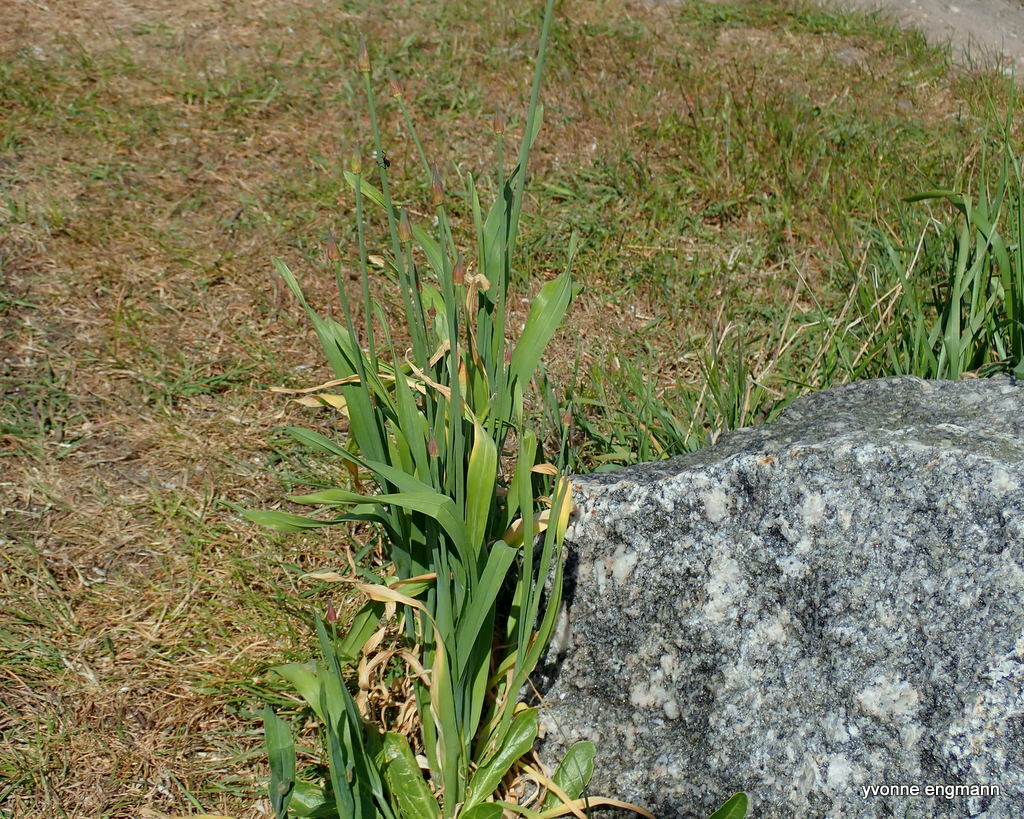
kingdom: Plantae
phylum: Tracheophyta
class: Liliopsida
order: Asparagales
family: Amaryllidaceae
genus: Allium
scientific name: Allium scorodoprasum
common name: Sand leek
